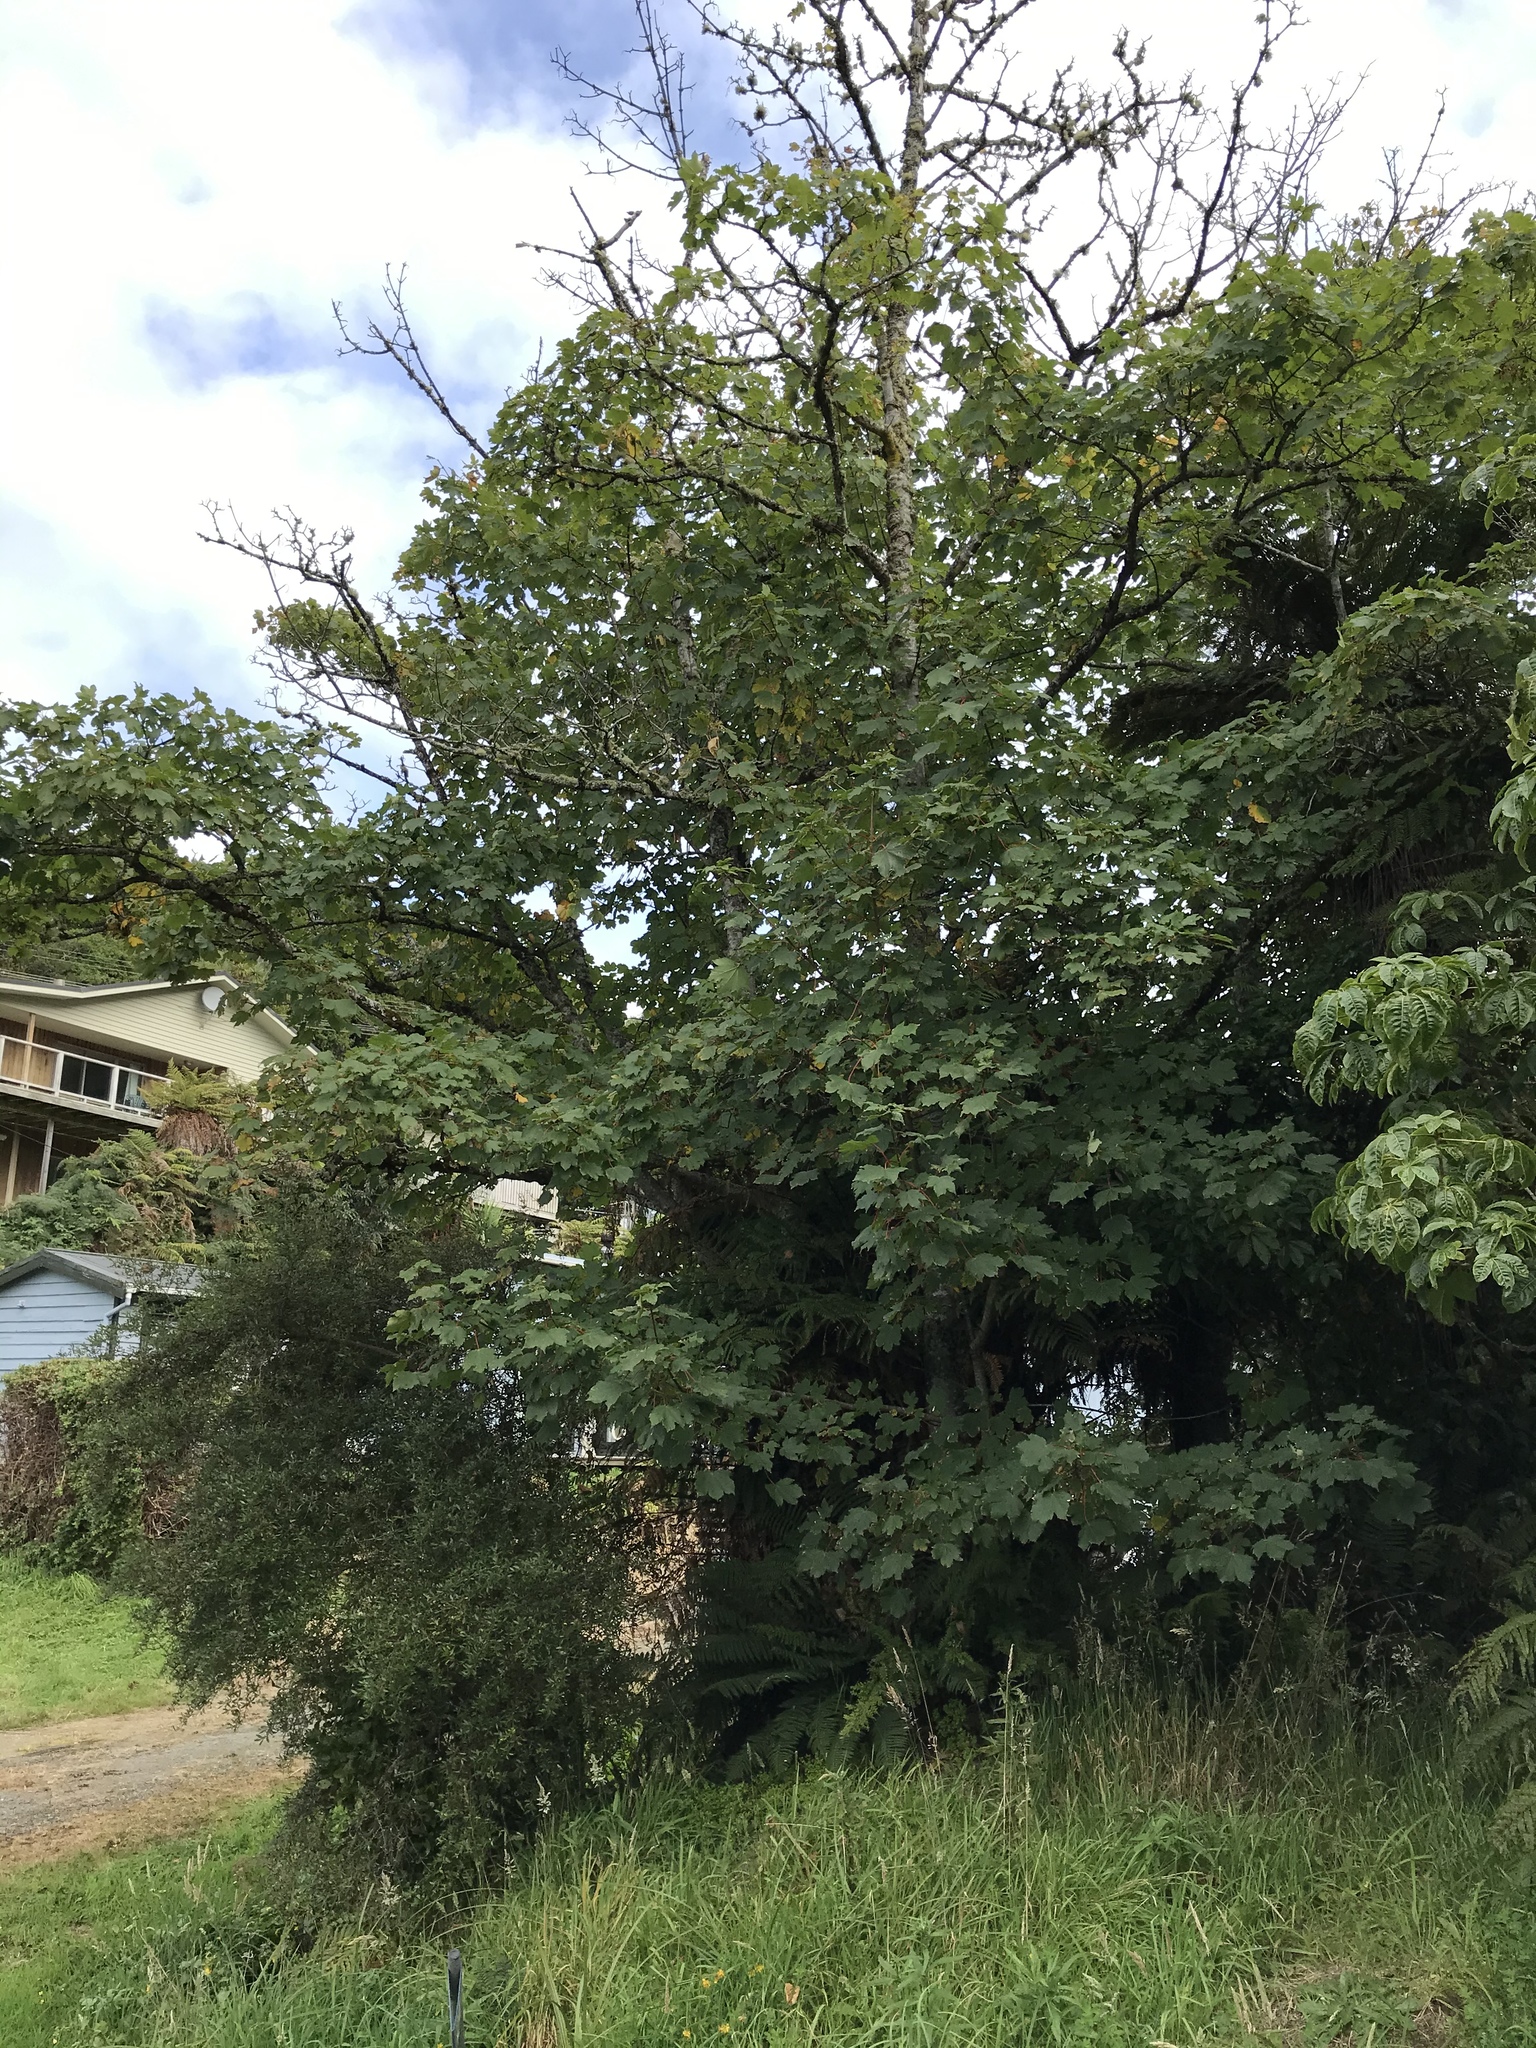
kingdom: Plantae
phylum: Tracheophyta
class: Magnoliopsida
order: Sapindales
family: Sapindaceae
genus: Acer
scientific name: Acer pseudoplatanus
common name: Sycamore
